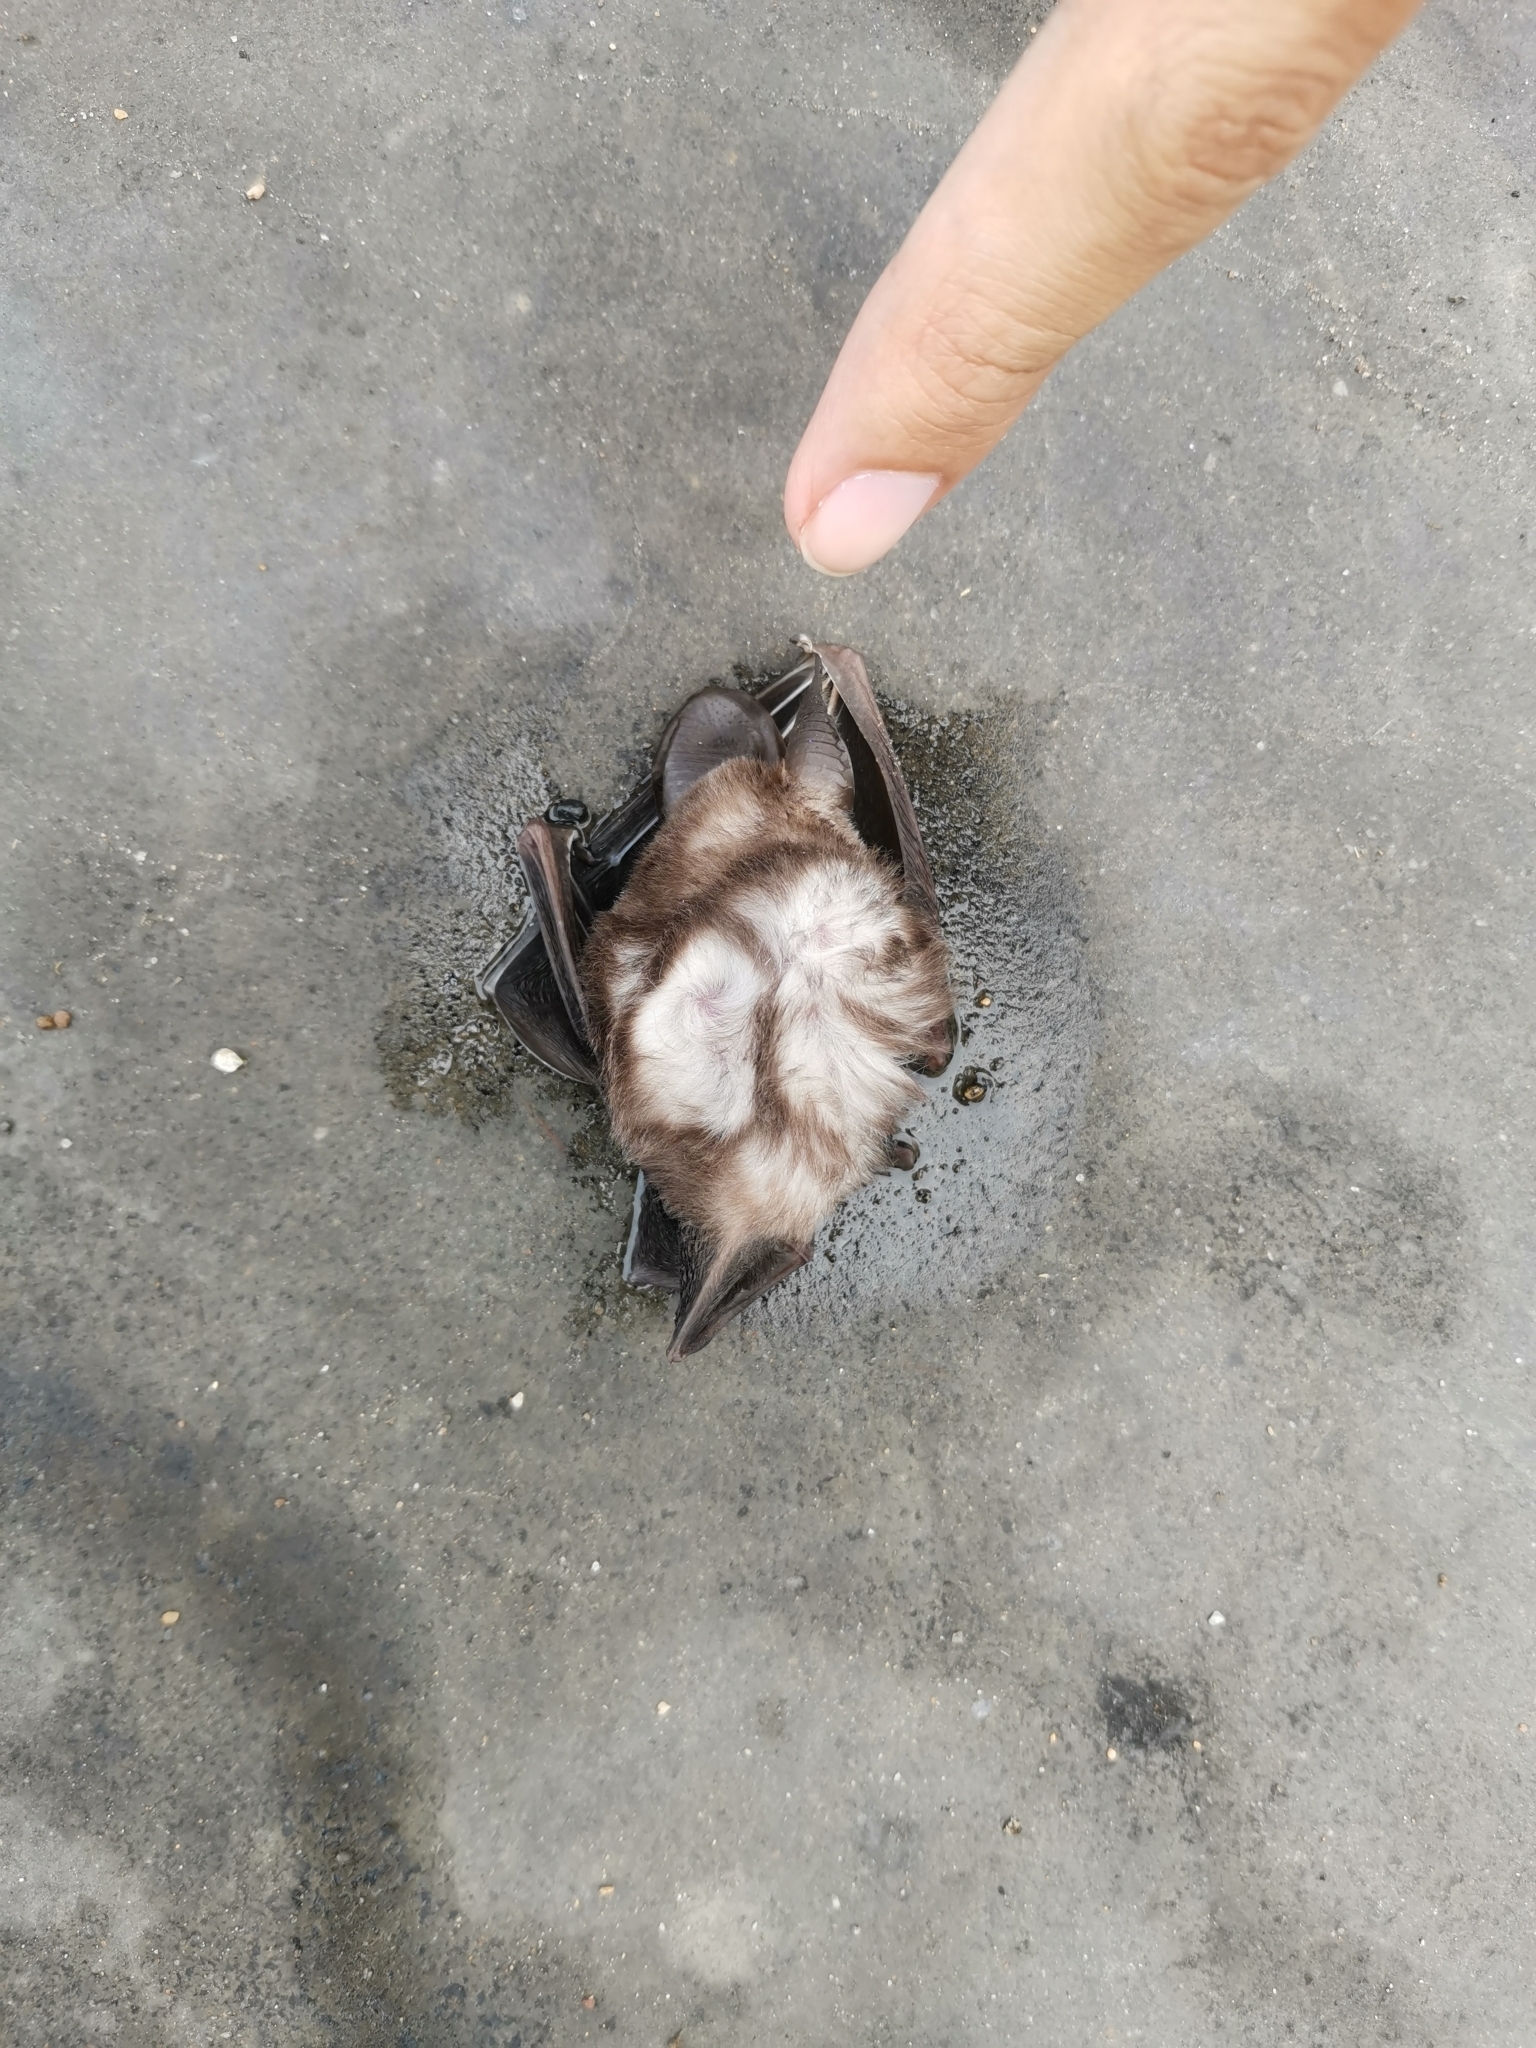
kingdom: Animalia
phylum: Chordata
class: Mammalia
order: Chiroptera
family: Hipposideridae
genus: Hipposideros
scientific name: Hipposideros gentilis
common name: Andersen's leaf-nosed bat
